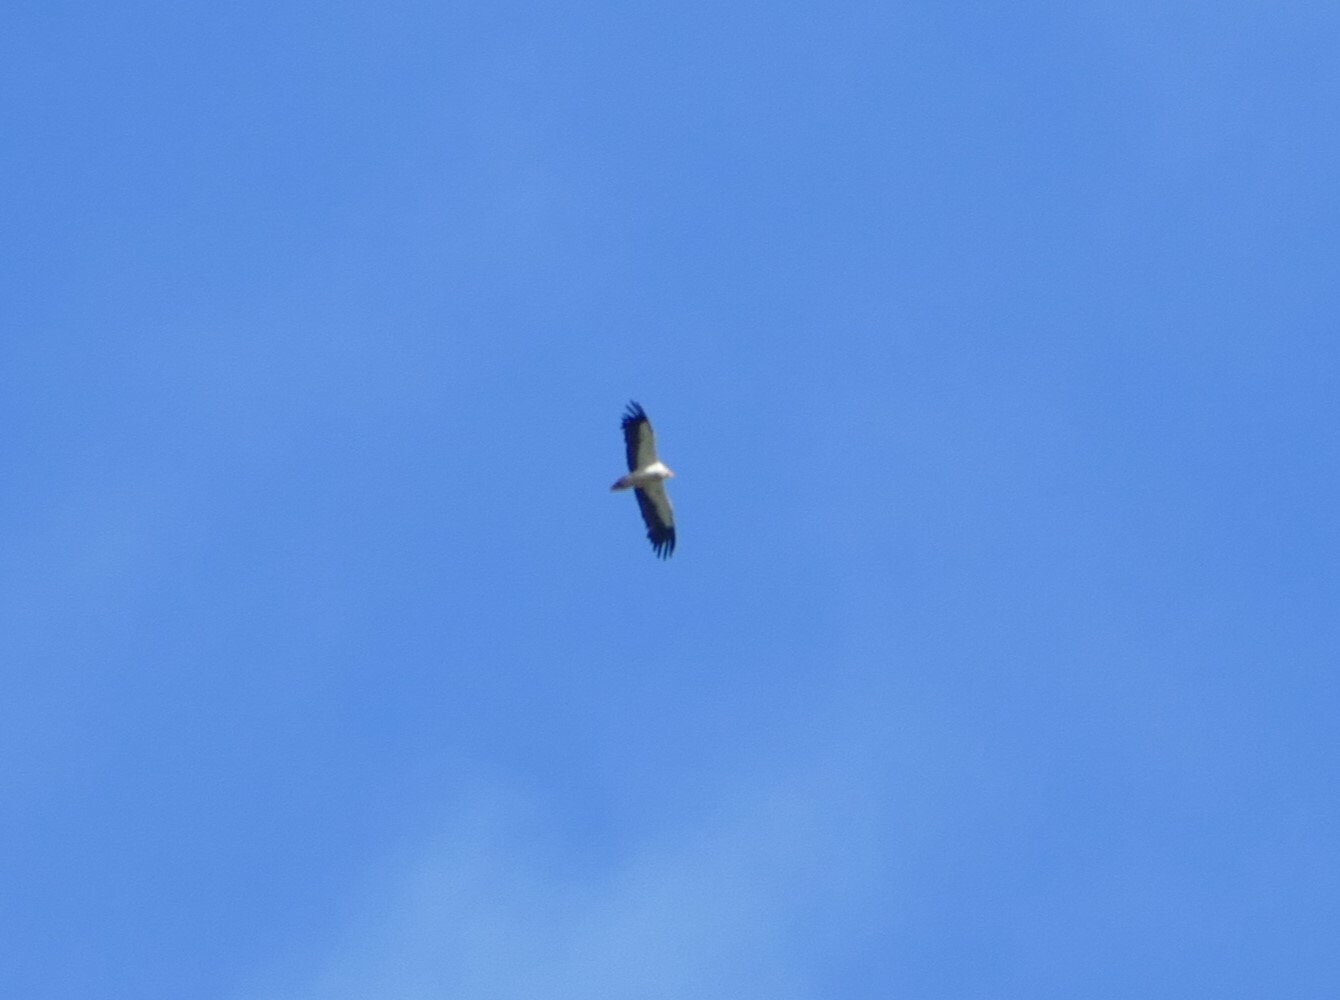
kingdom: Animalia
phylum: Chordata
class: Aves
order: Accipitriformes
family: Accipitridae
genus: Neophron
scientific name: Neophron percnopterus
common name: Egyptian vulture
